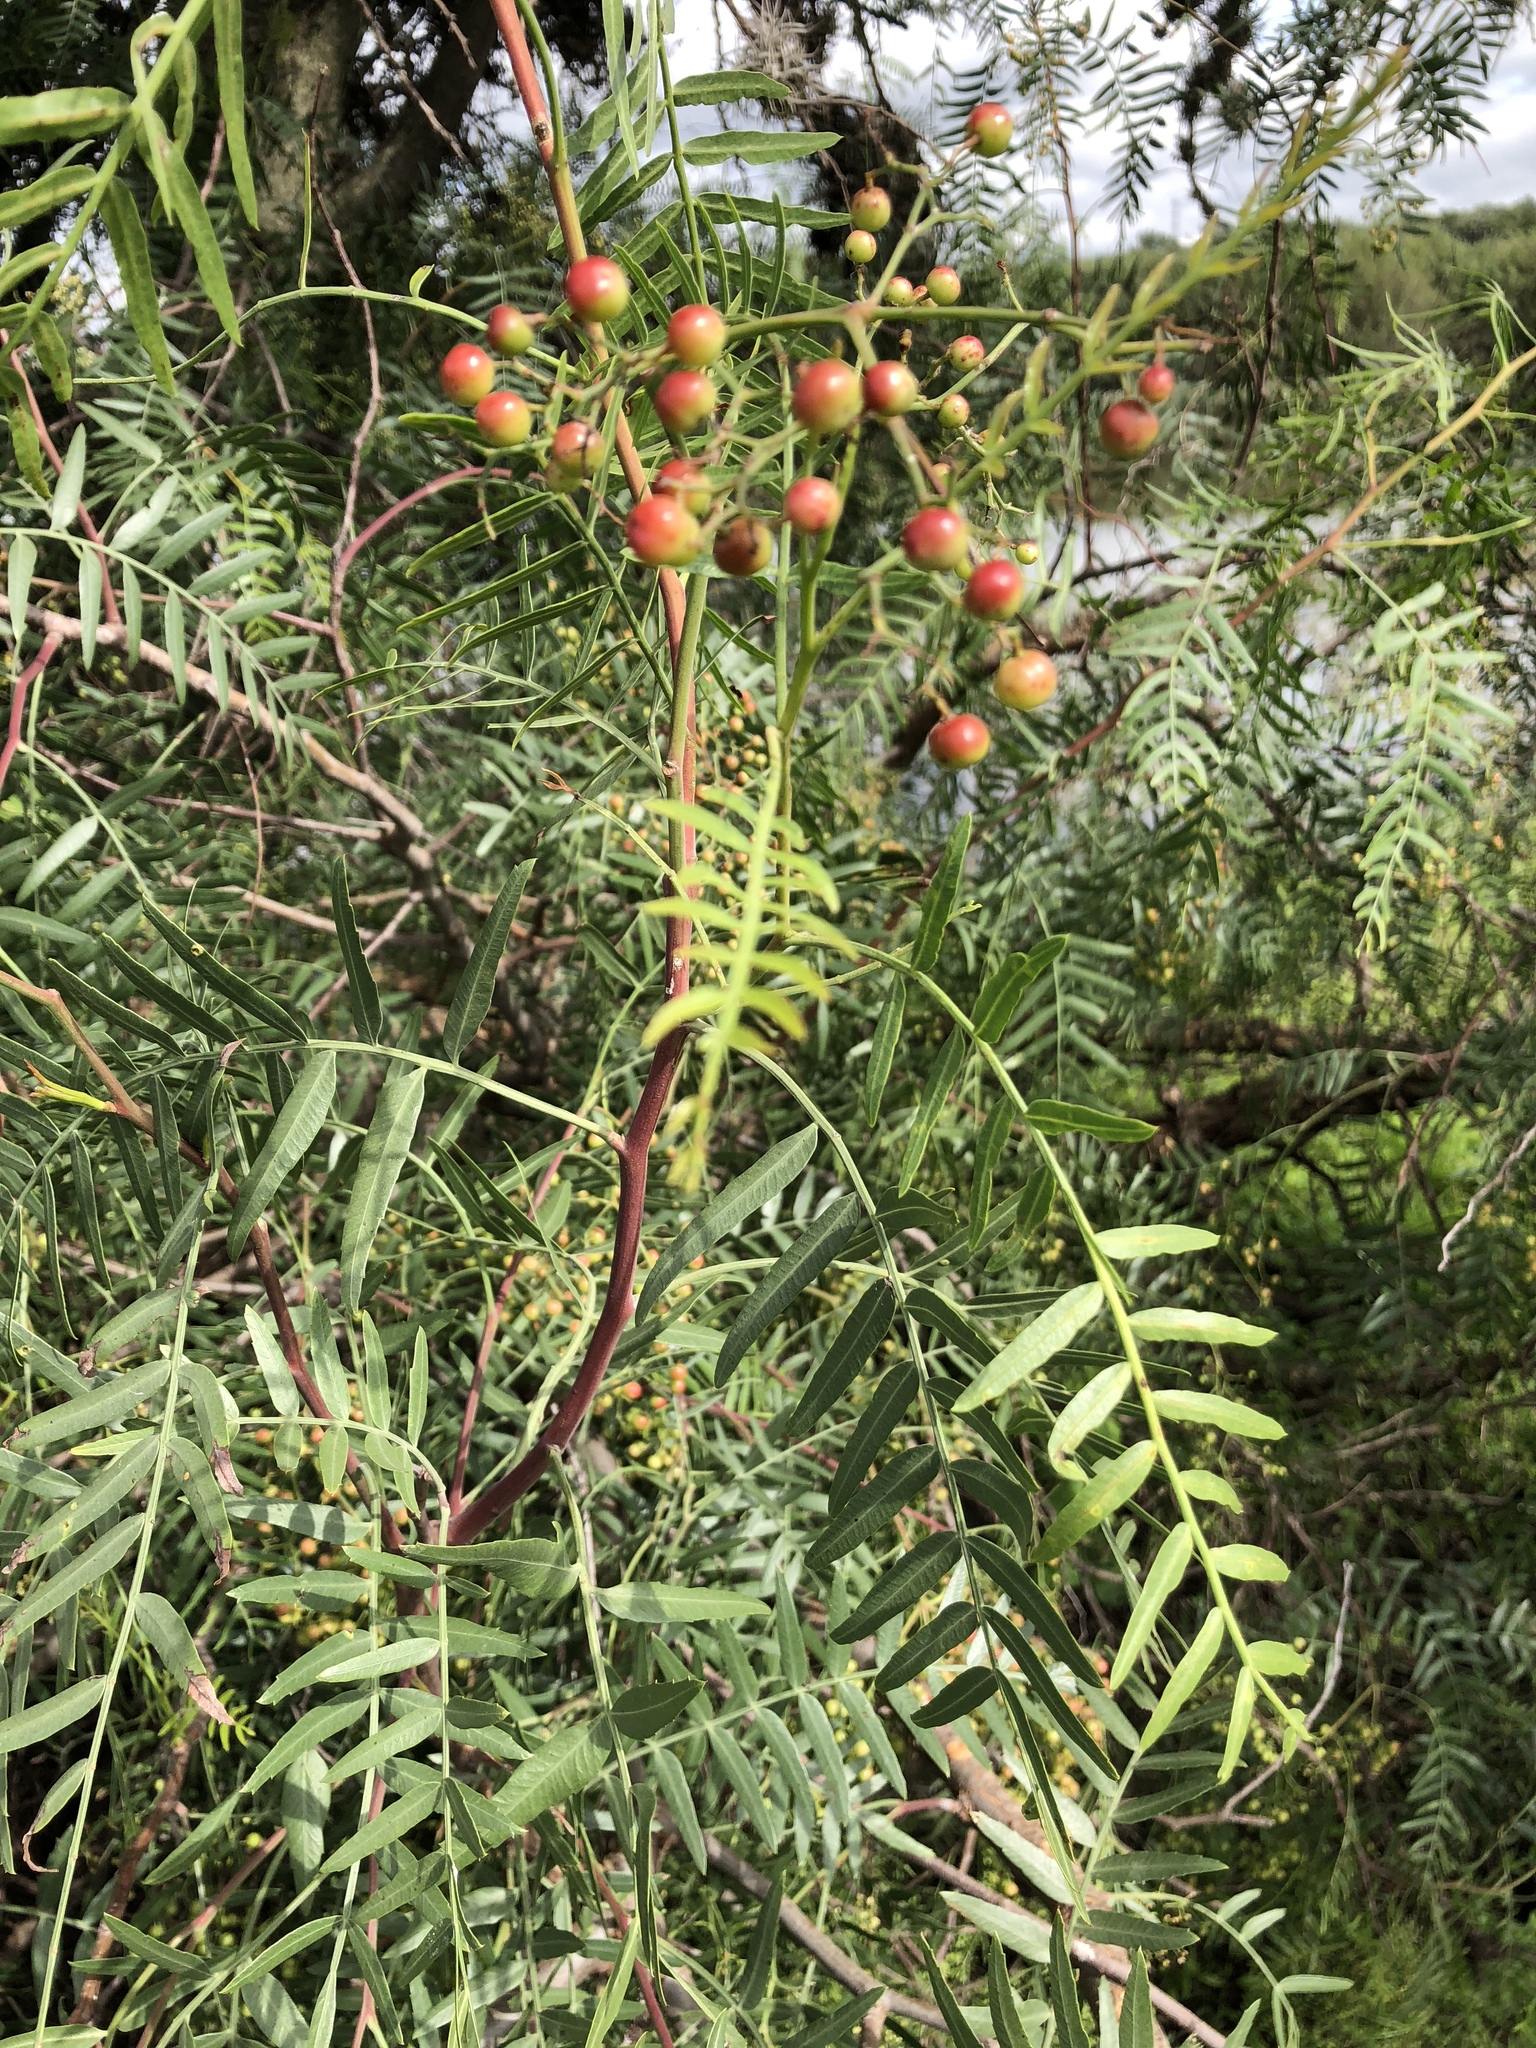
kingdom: Plantae
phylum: Tracheophyta
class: Magnoliopsida
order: Sapindales
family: Anacardiaceae
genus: Schinus
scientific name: Schinus molle
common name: Peruvian peppertree
